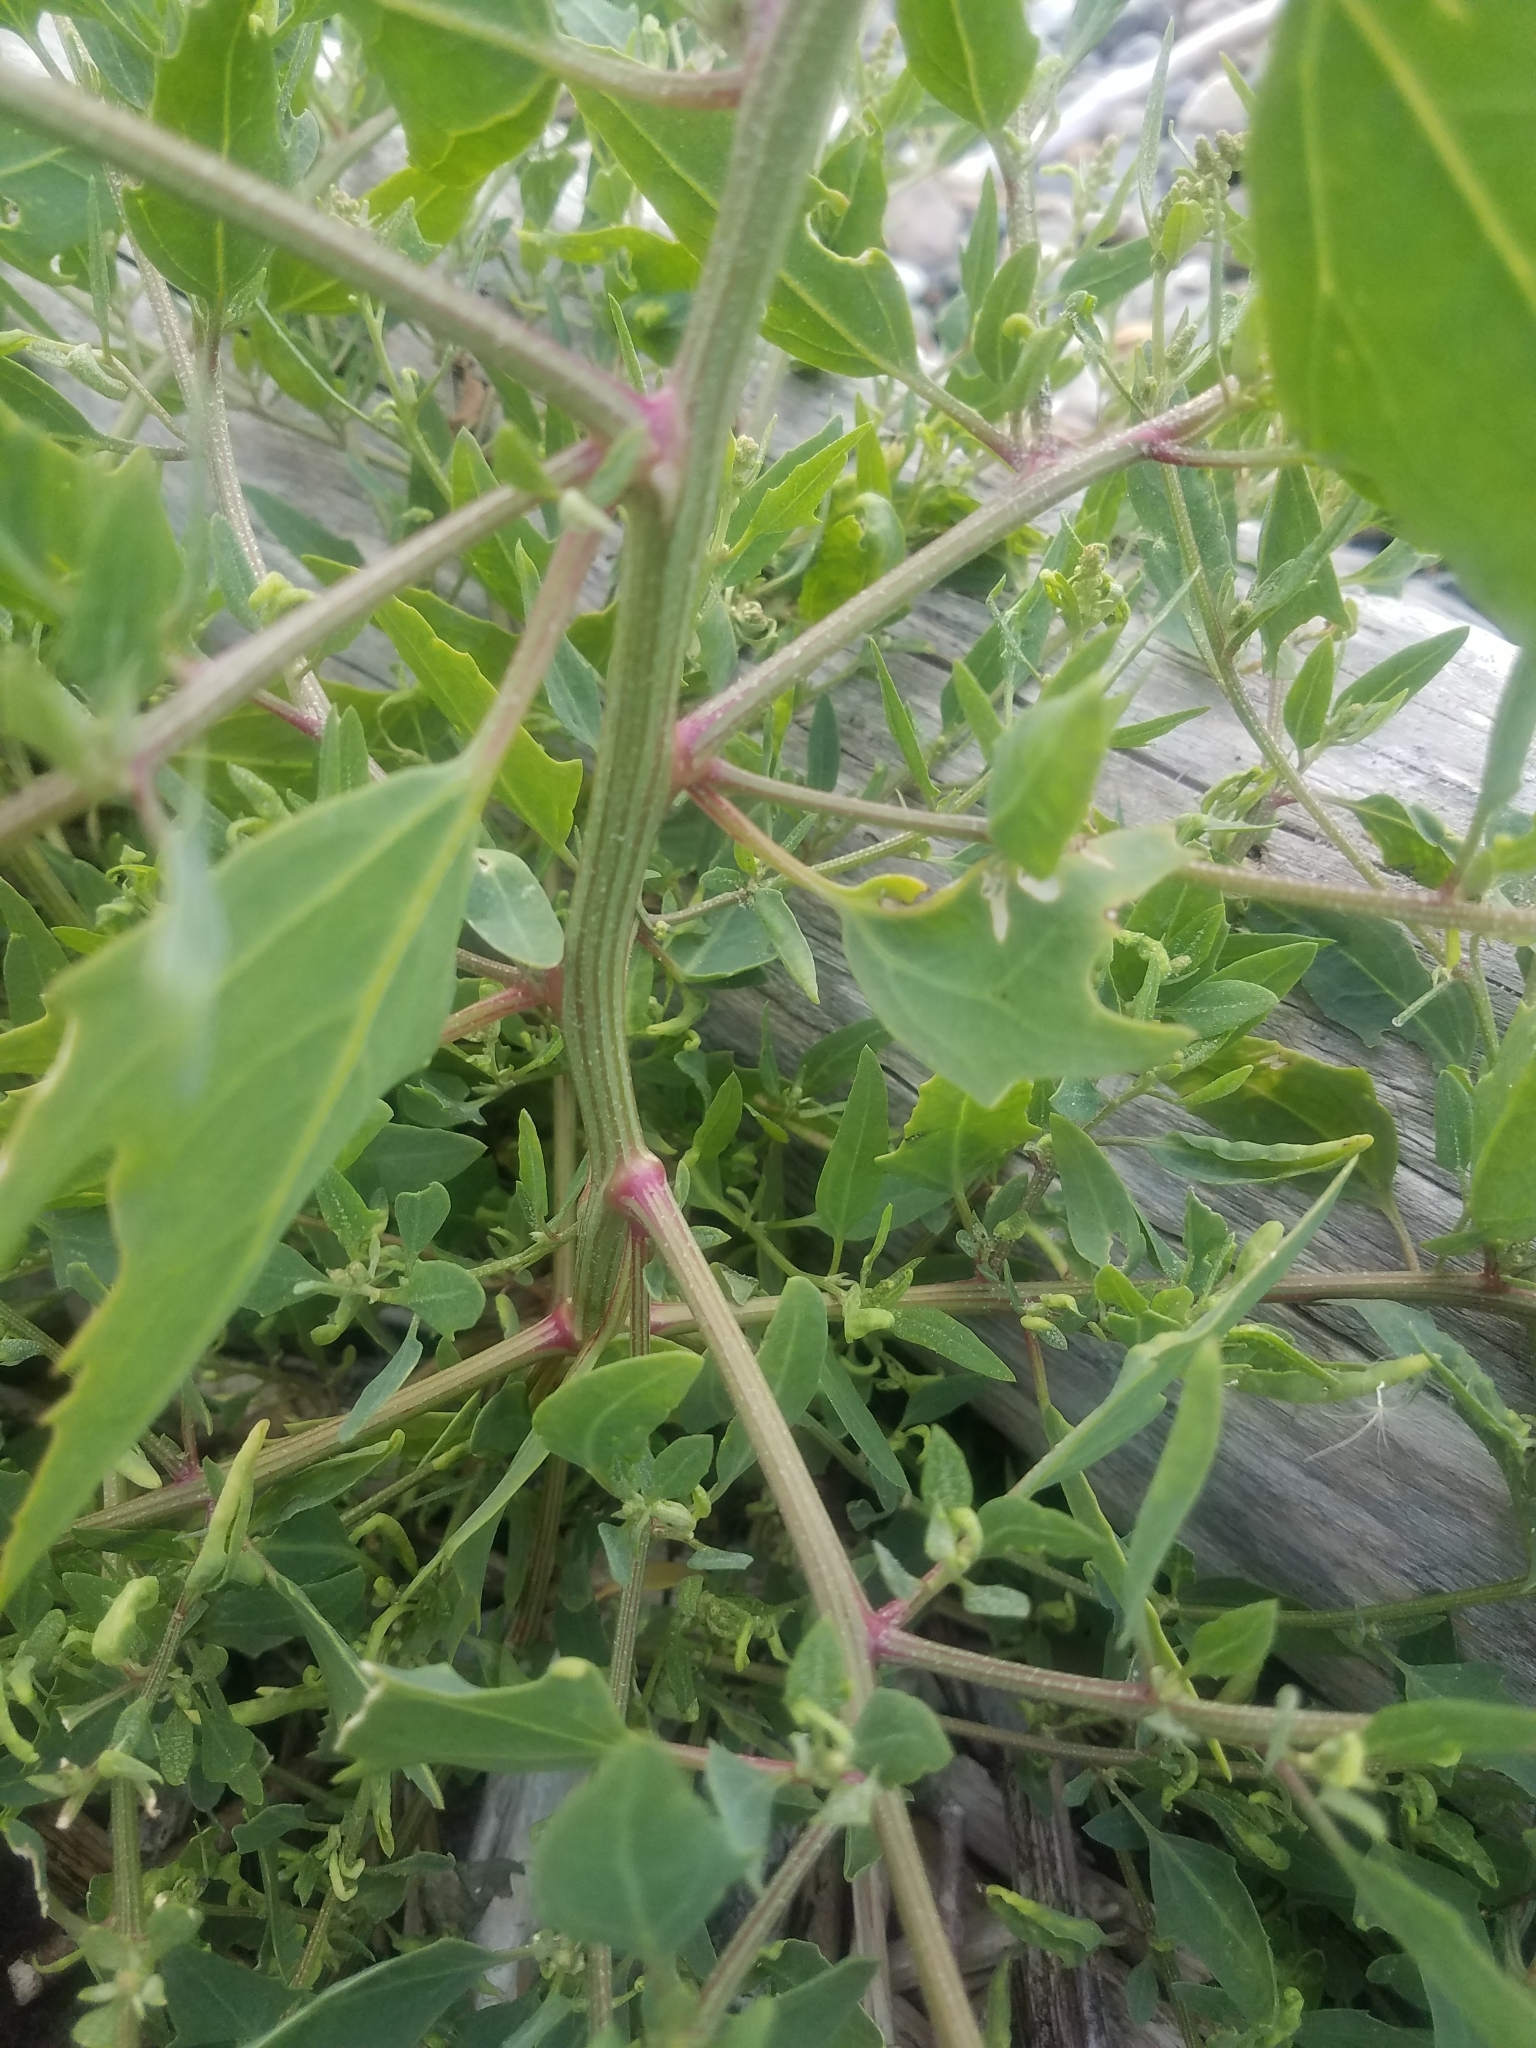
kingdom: Plantae
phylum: Tracheophyta
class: Magnoliopsida
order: Caryophyllales
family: Amaranthaceae
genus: Atriplex
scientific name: Atriplex prostrata
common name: Spear-leaved orache
